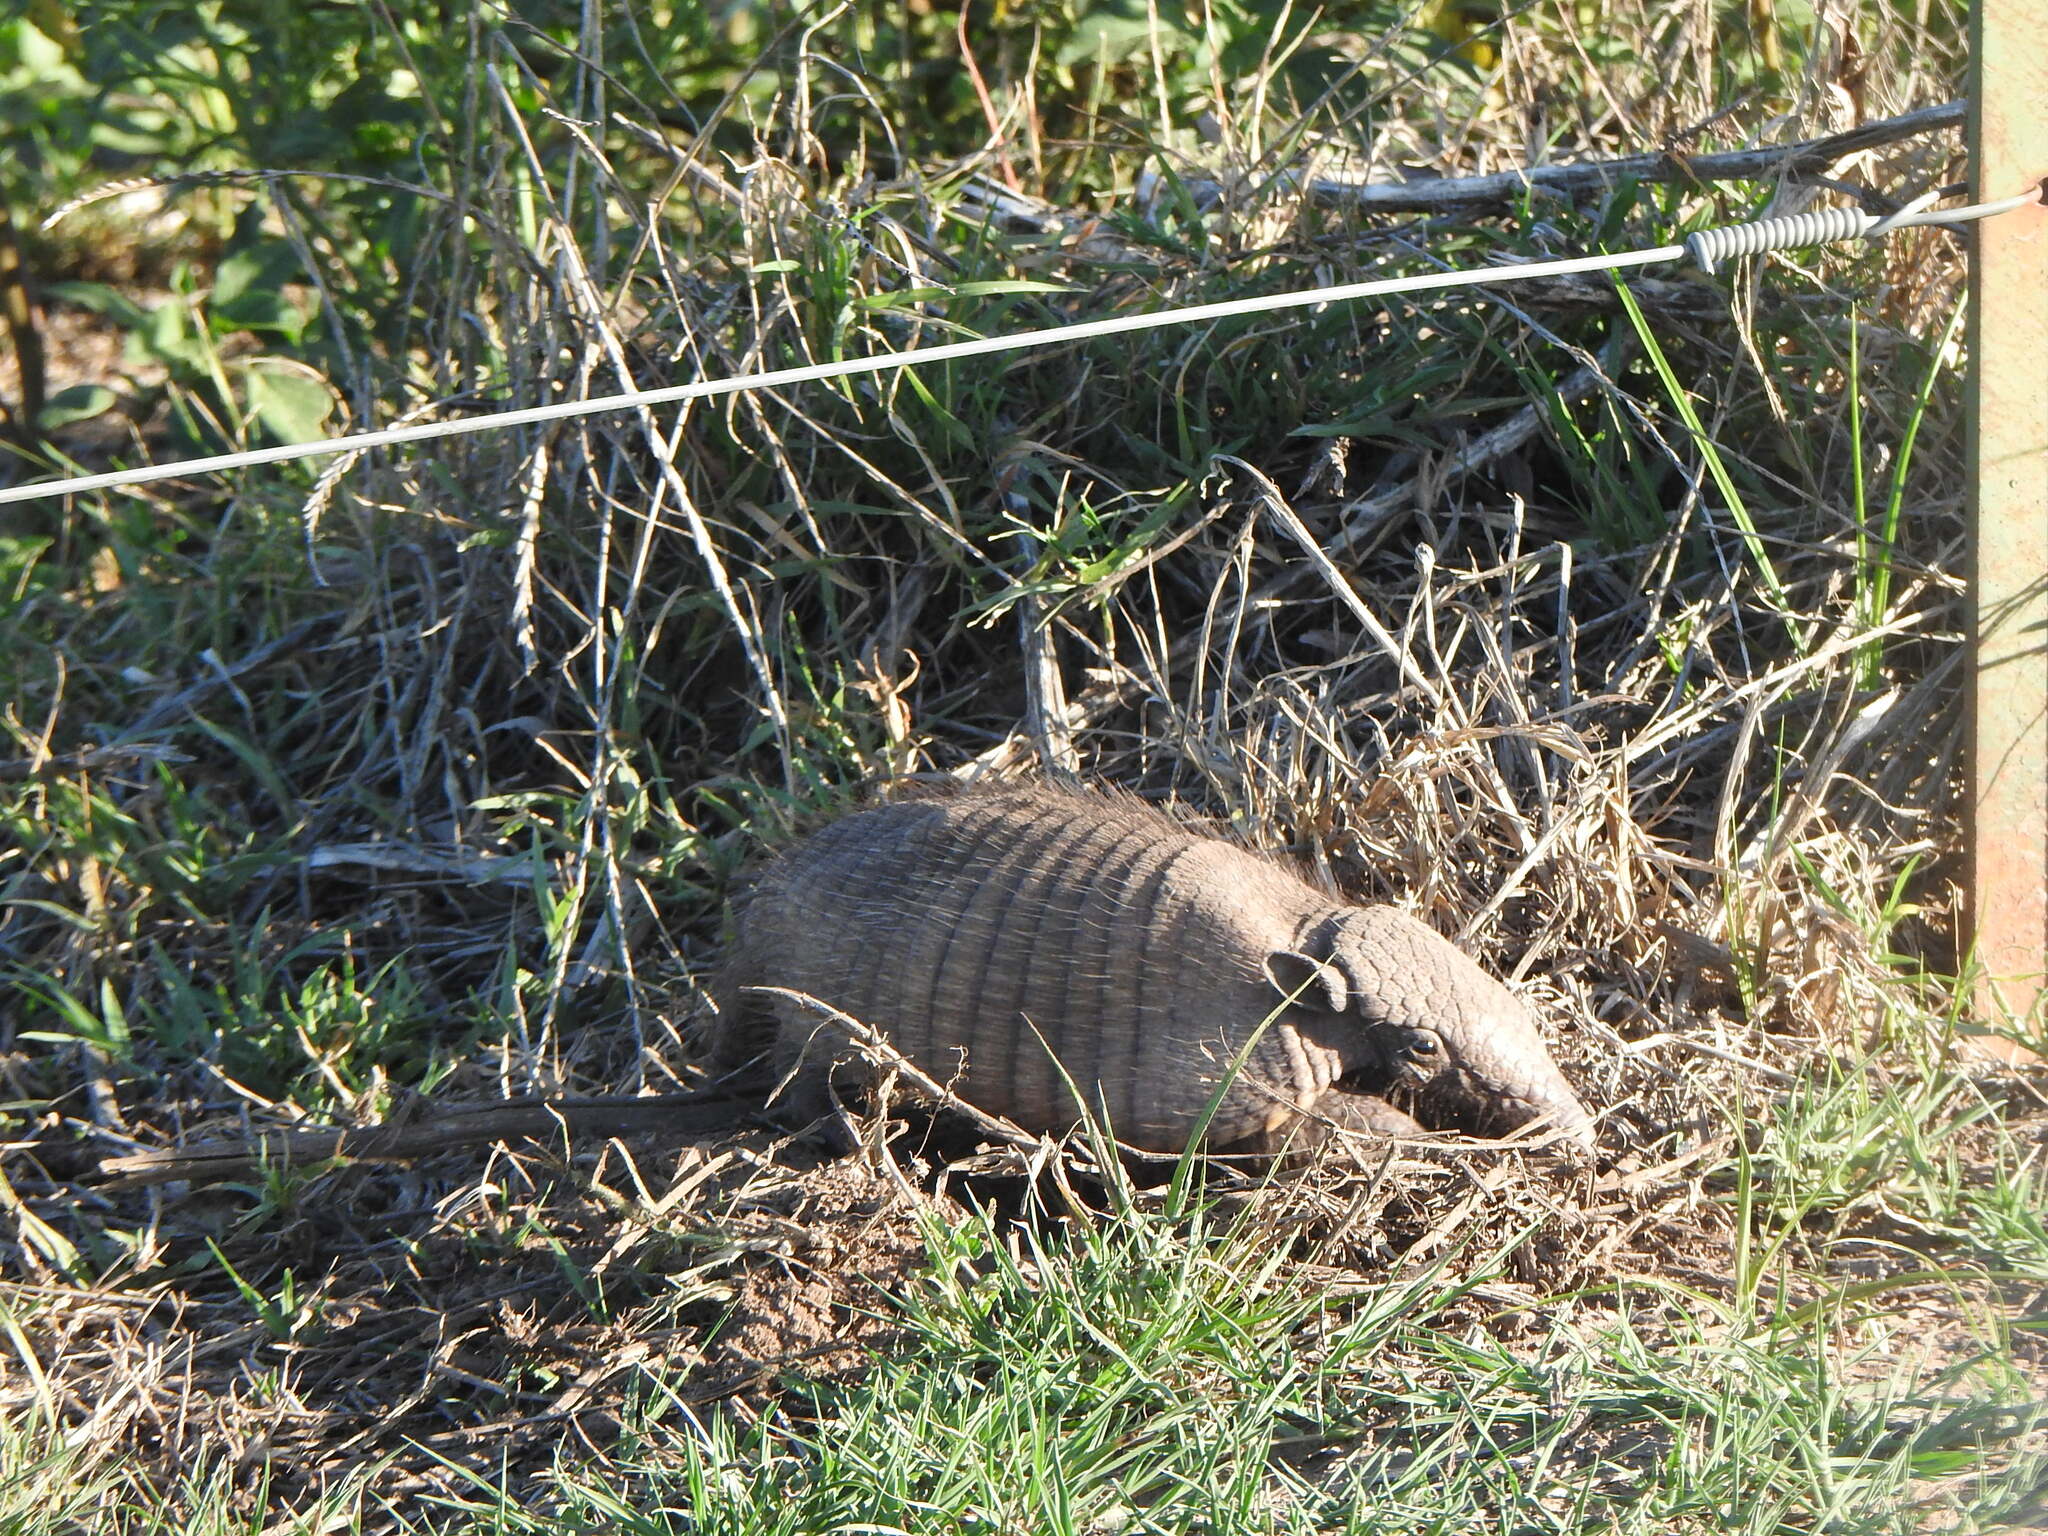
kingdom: Animalia
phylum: Chordata
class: Mammalia
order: Cingulata
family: Dasypodidae
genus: Chaetophractus
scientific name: Chaetophractus villosus
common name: Big hairy armadillo
